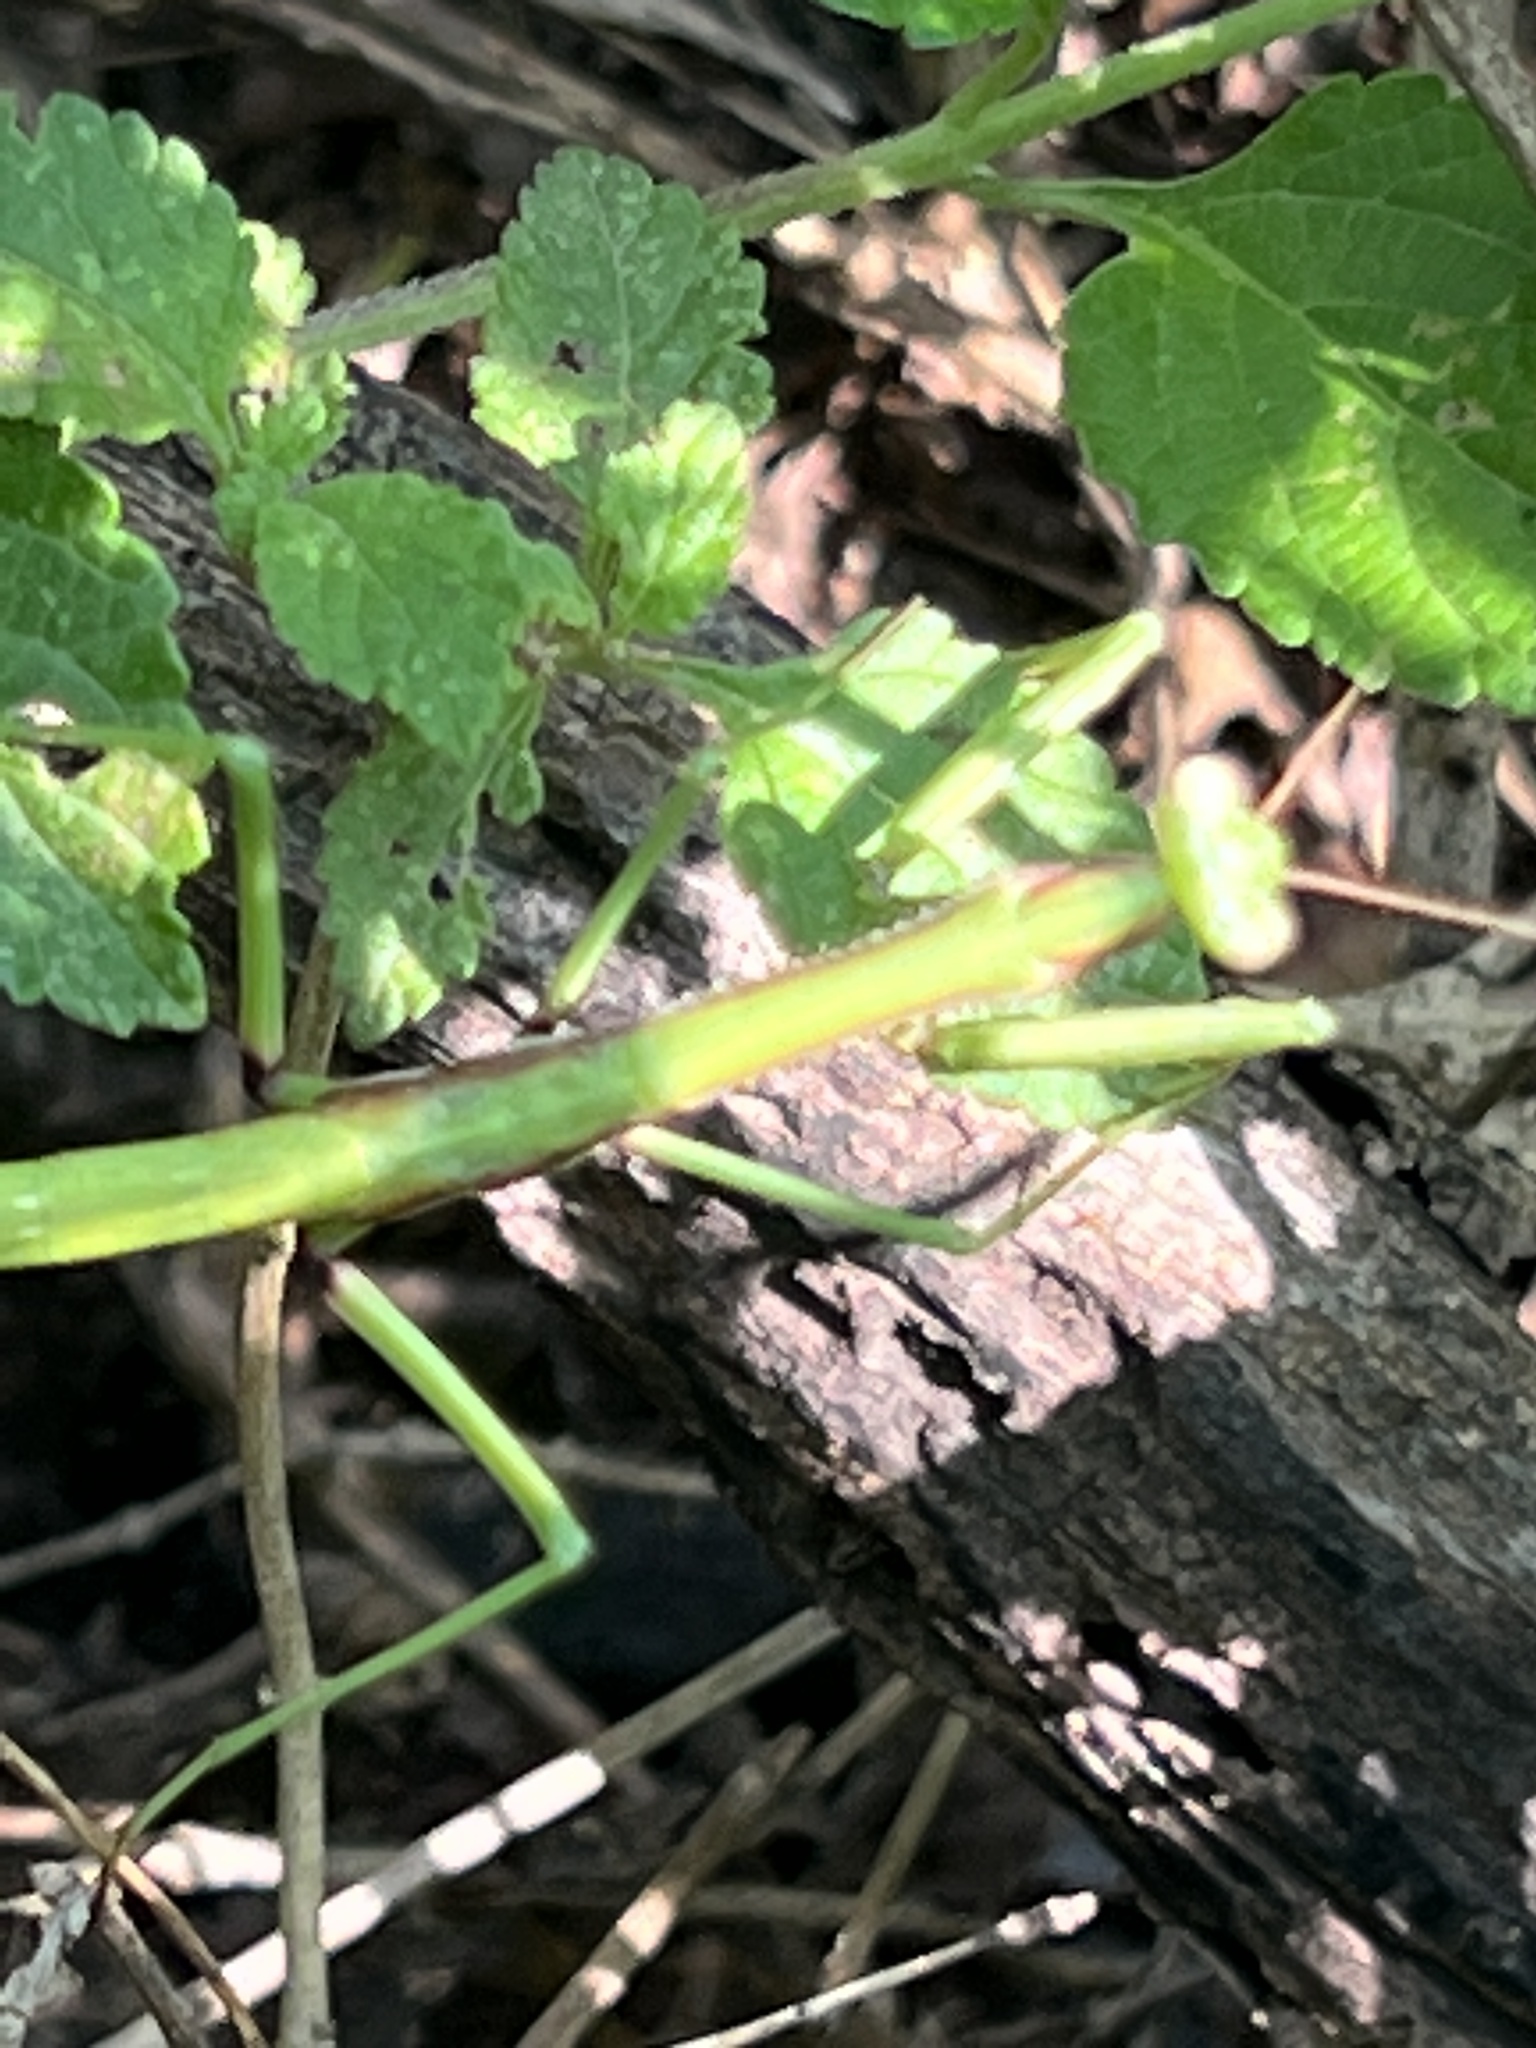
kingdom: Animalia
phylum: Arthropoda
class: Insecta
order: Mantodea
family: Coptopterygidae
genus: Coptopteryx
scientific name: Coptopteryx argentina
